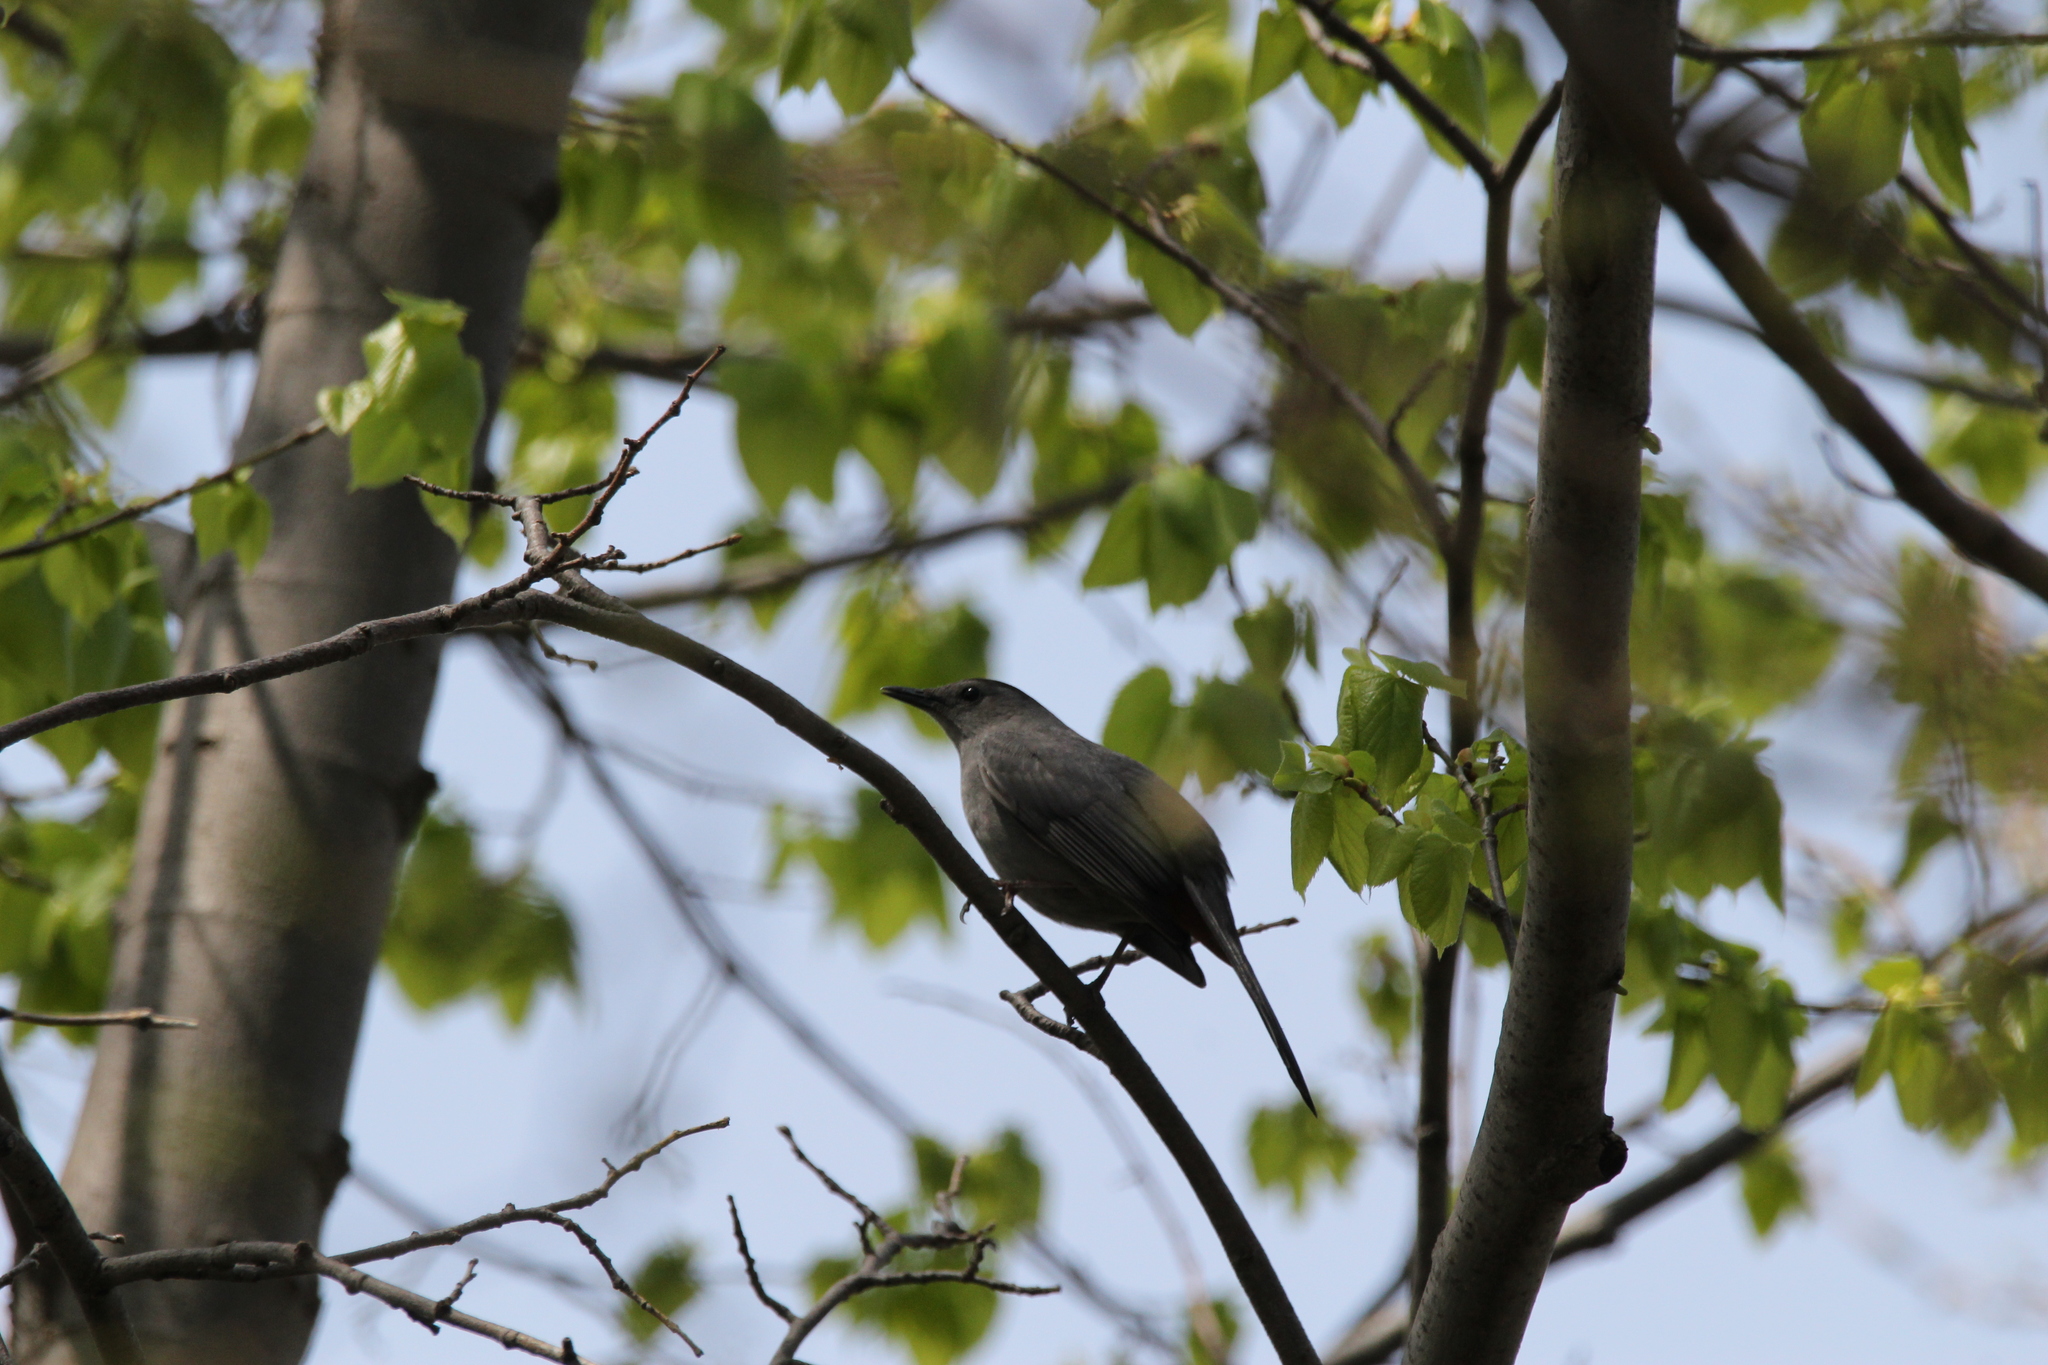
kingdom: Animalia
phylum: Chordata
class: Aves
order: Passeriformes
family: Mimidae
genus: Dumetella
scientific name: Dumetella carolinensis
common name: Gray catbird
